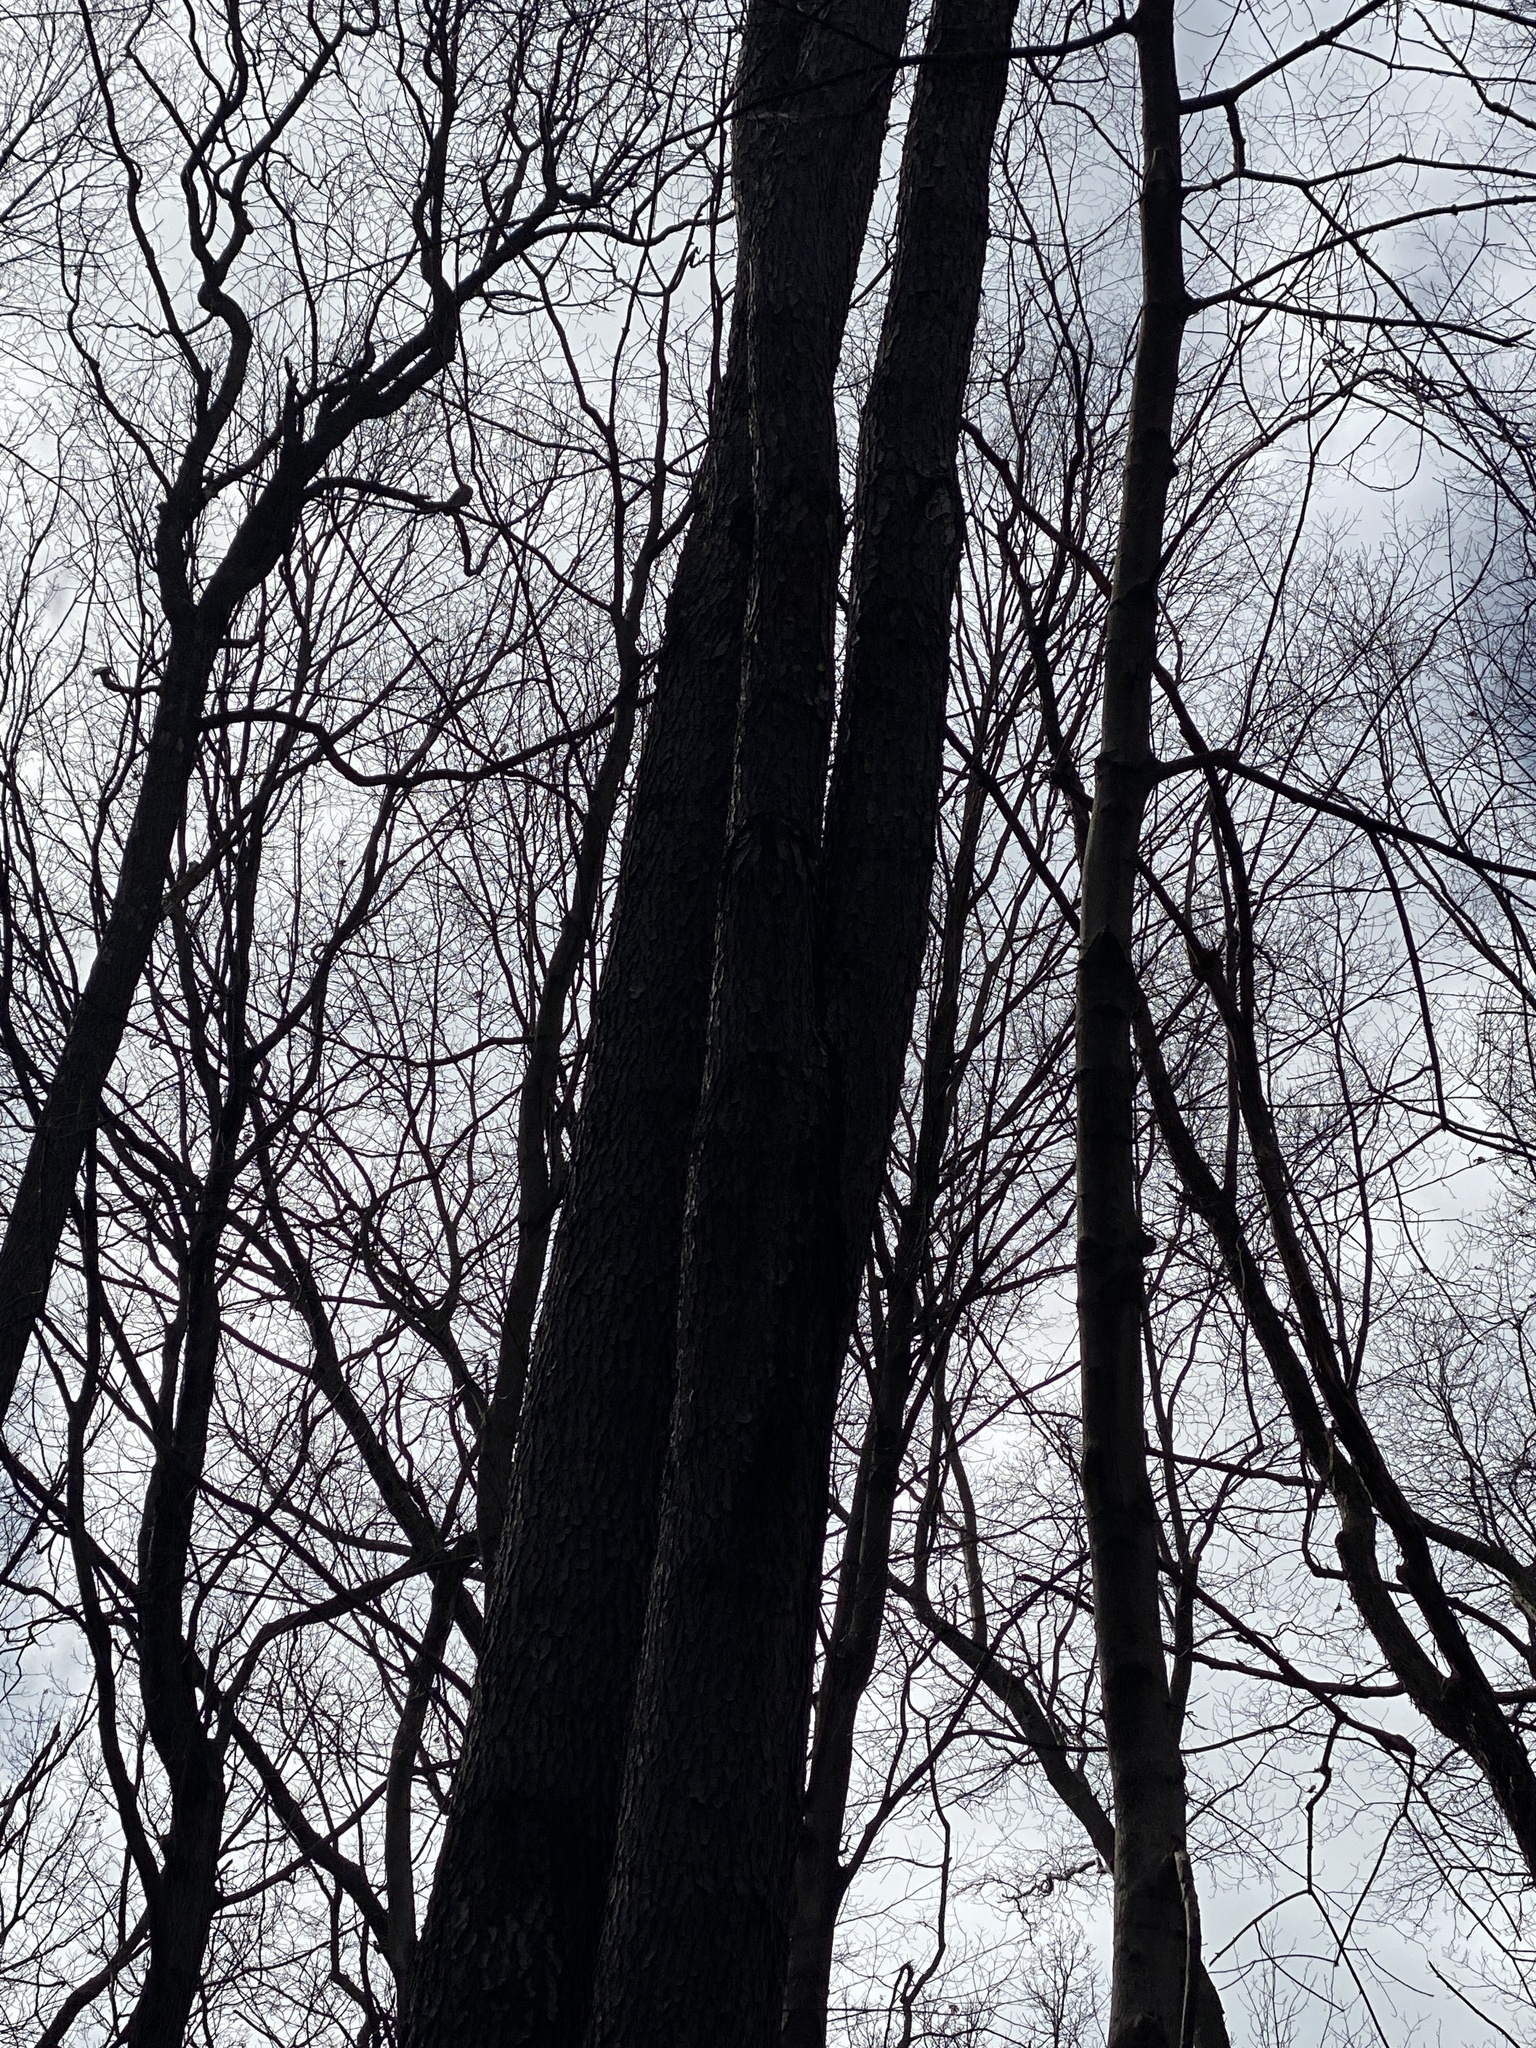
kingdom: Plantae
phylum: Tracheophyta
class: Magnoliopsida
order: Rosales
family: Rosaceae
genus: Prunus
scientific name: Prunus serotina
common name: Black cherry
